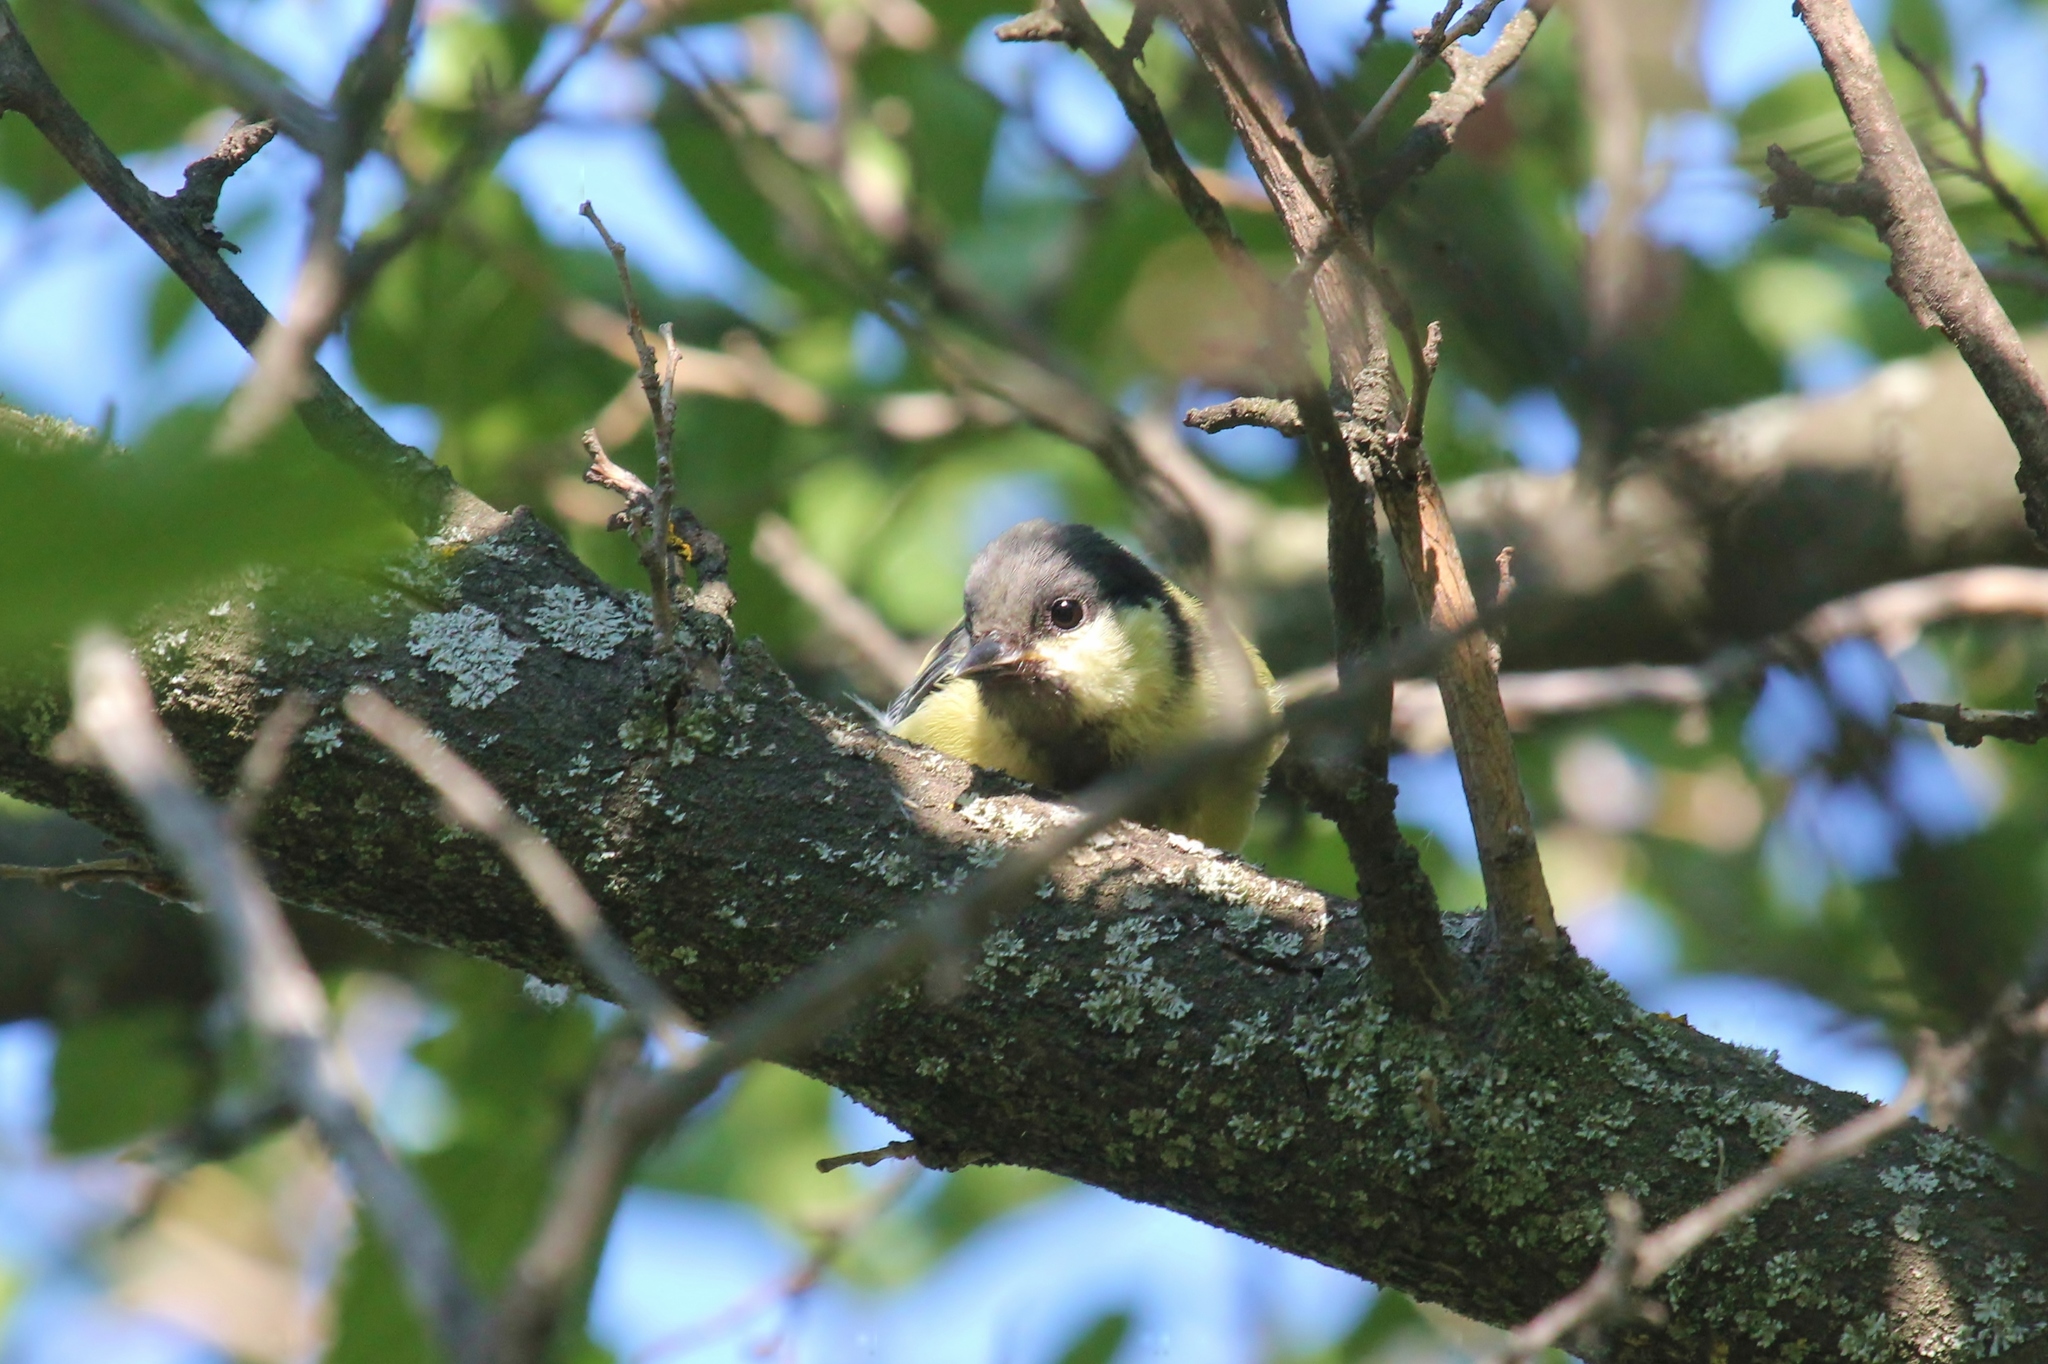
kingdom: Animalia
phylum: Chordata
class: Aves
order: Passeriformes
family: Paridae
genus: Parus
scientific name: Parus major
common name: Great tit
